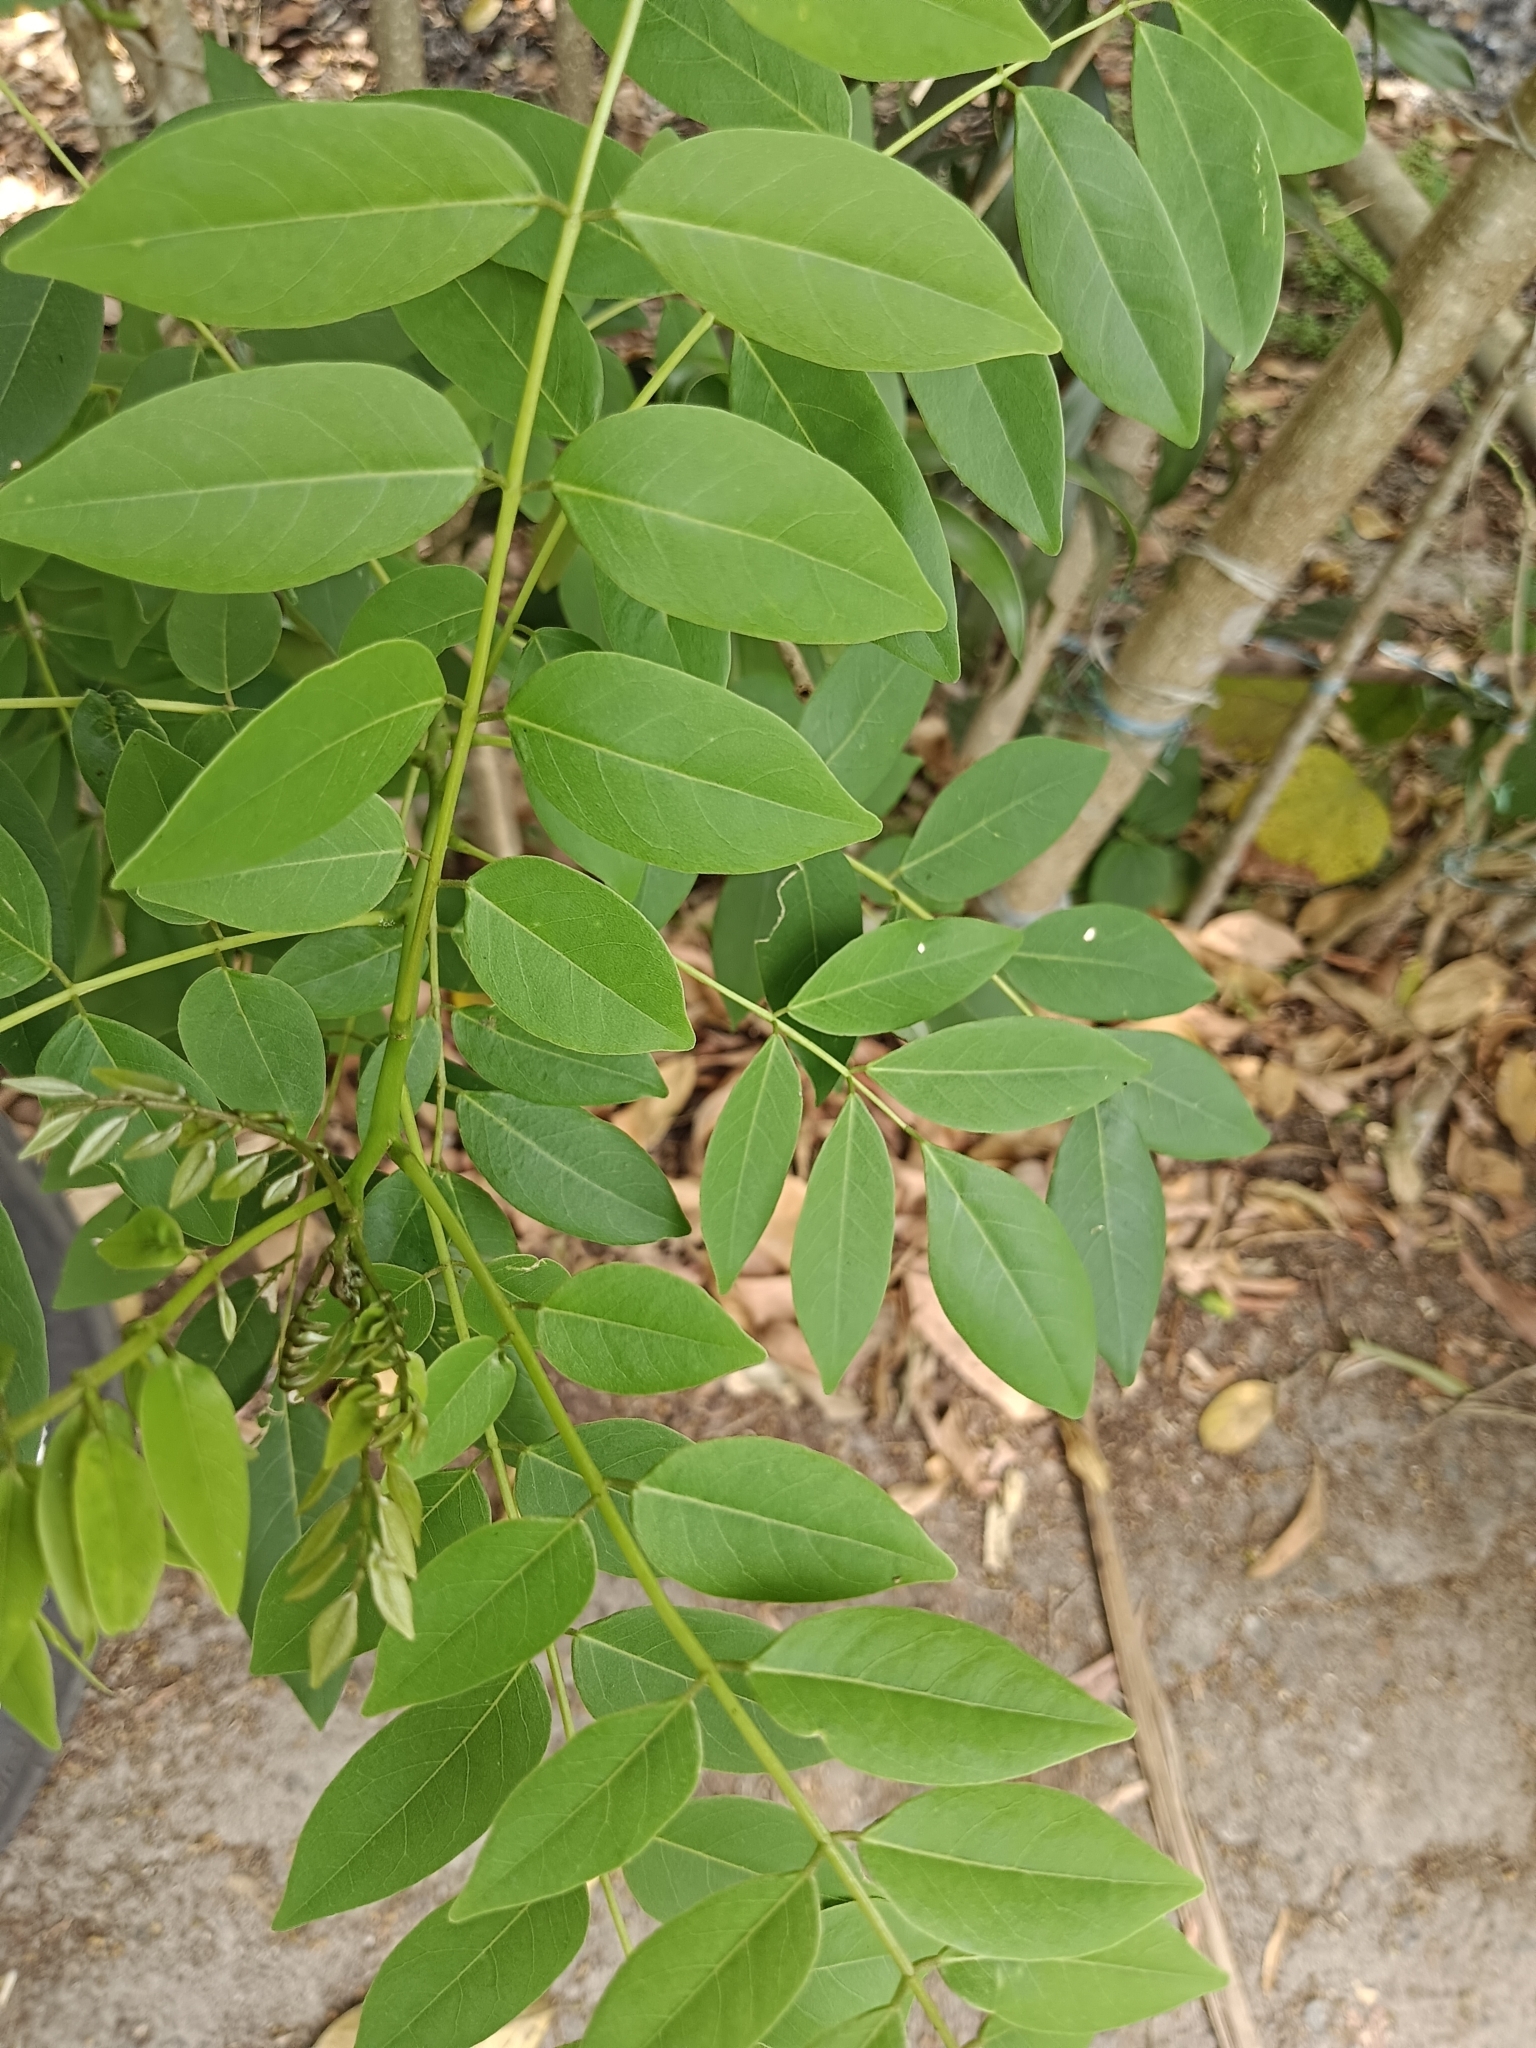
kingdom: Plantae
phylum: Tracheophyta
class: Magnoliopsida
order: Fabales
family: Fabaceae
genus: Gliricidia
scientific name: Gliricidia sepium
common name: Quickstick
